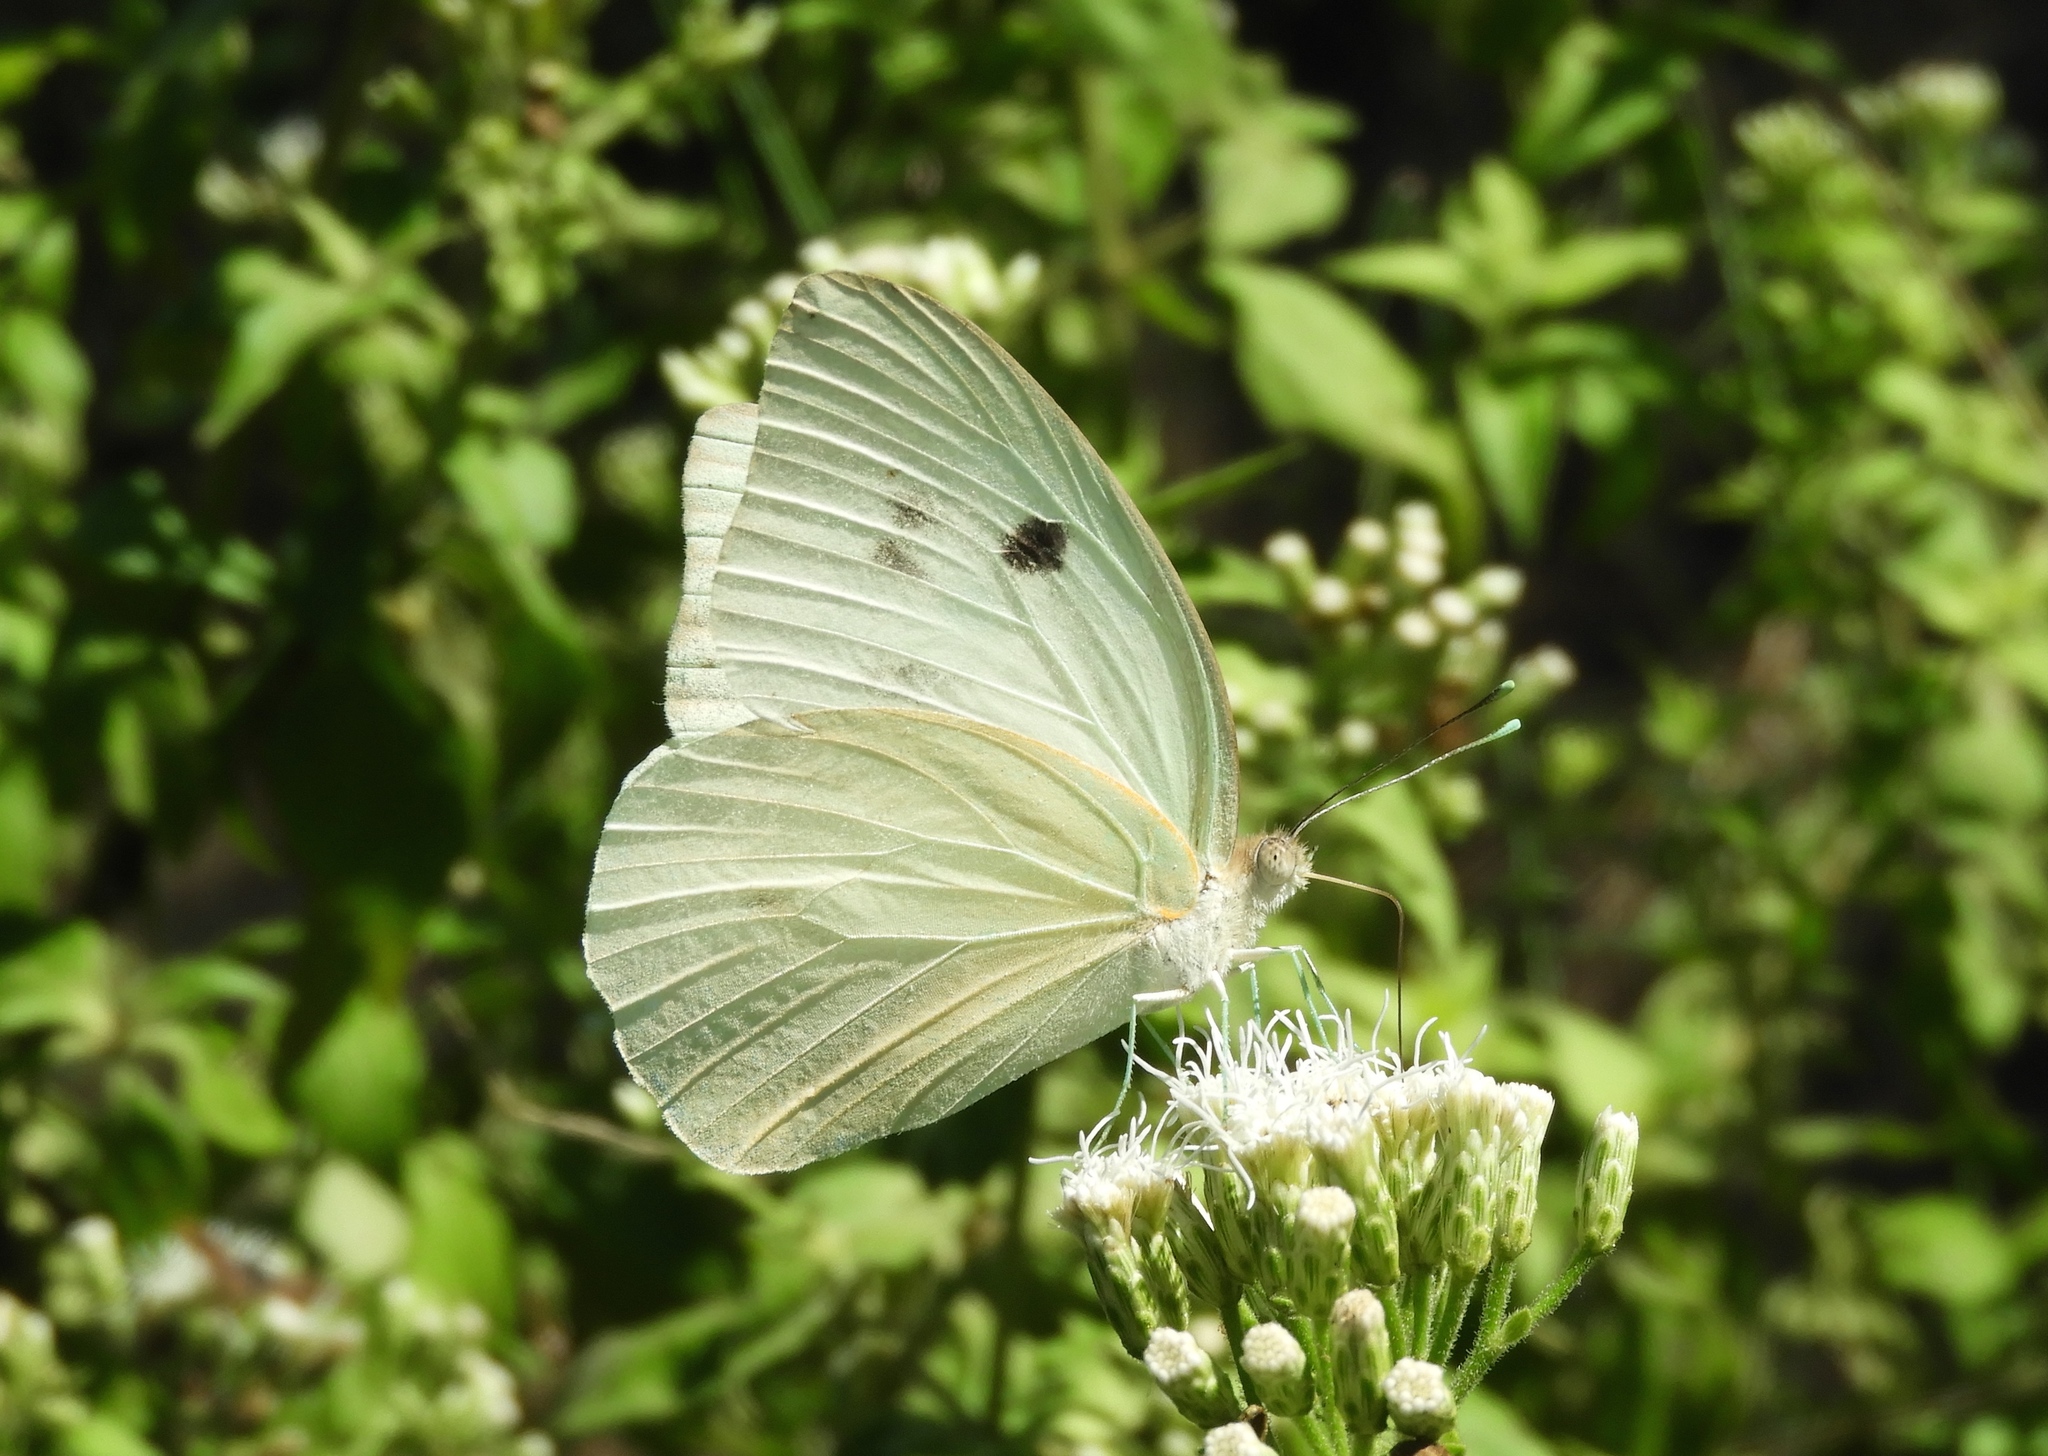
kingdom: Animalia
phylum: Arthropoda
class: Insecta
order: Lepidoptera
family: Pieridae
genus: Ganyra
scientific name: Ganyra josephina
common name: Giant white
